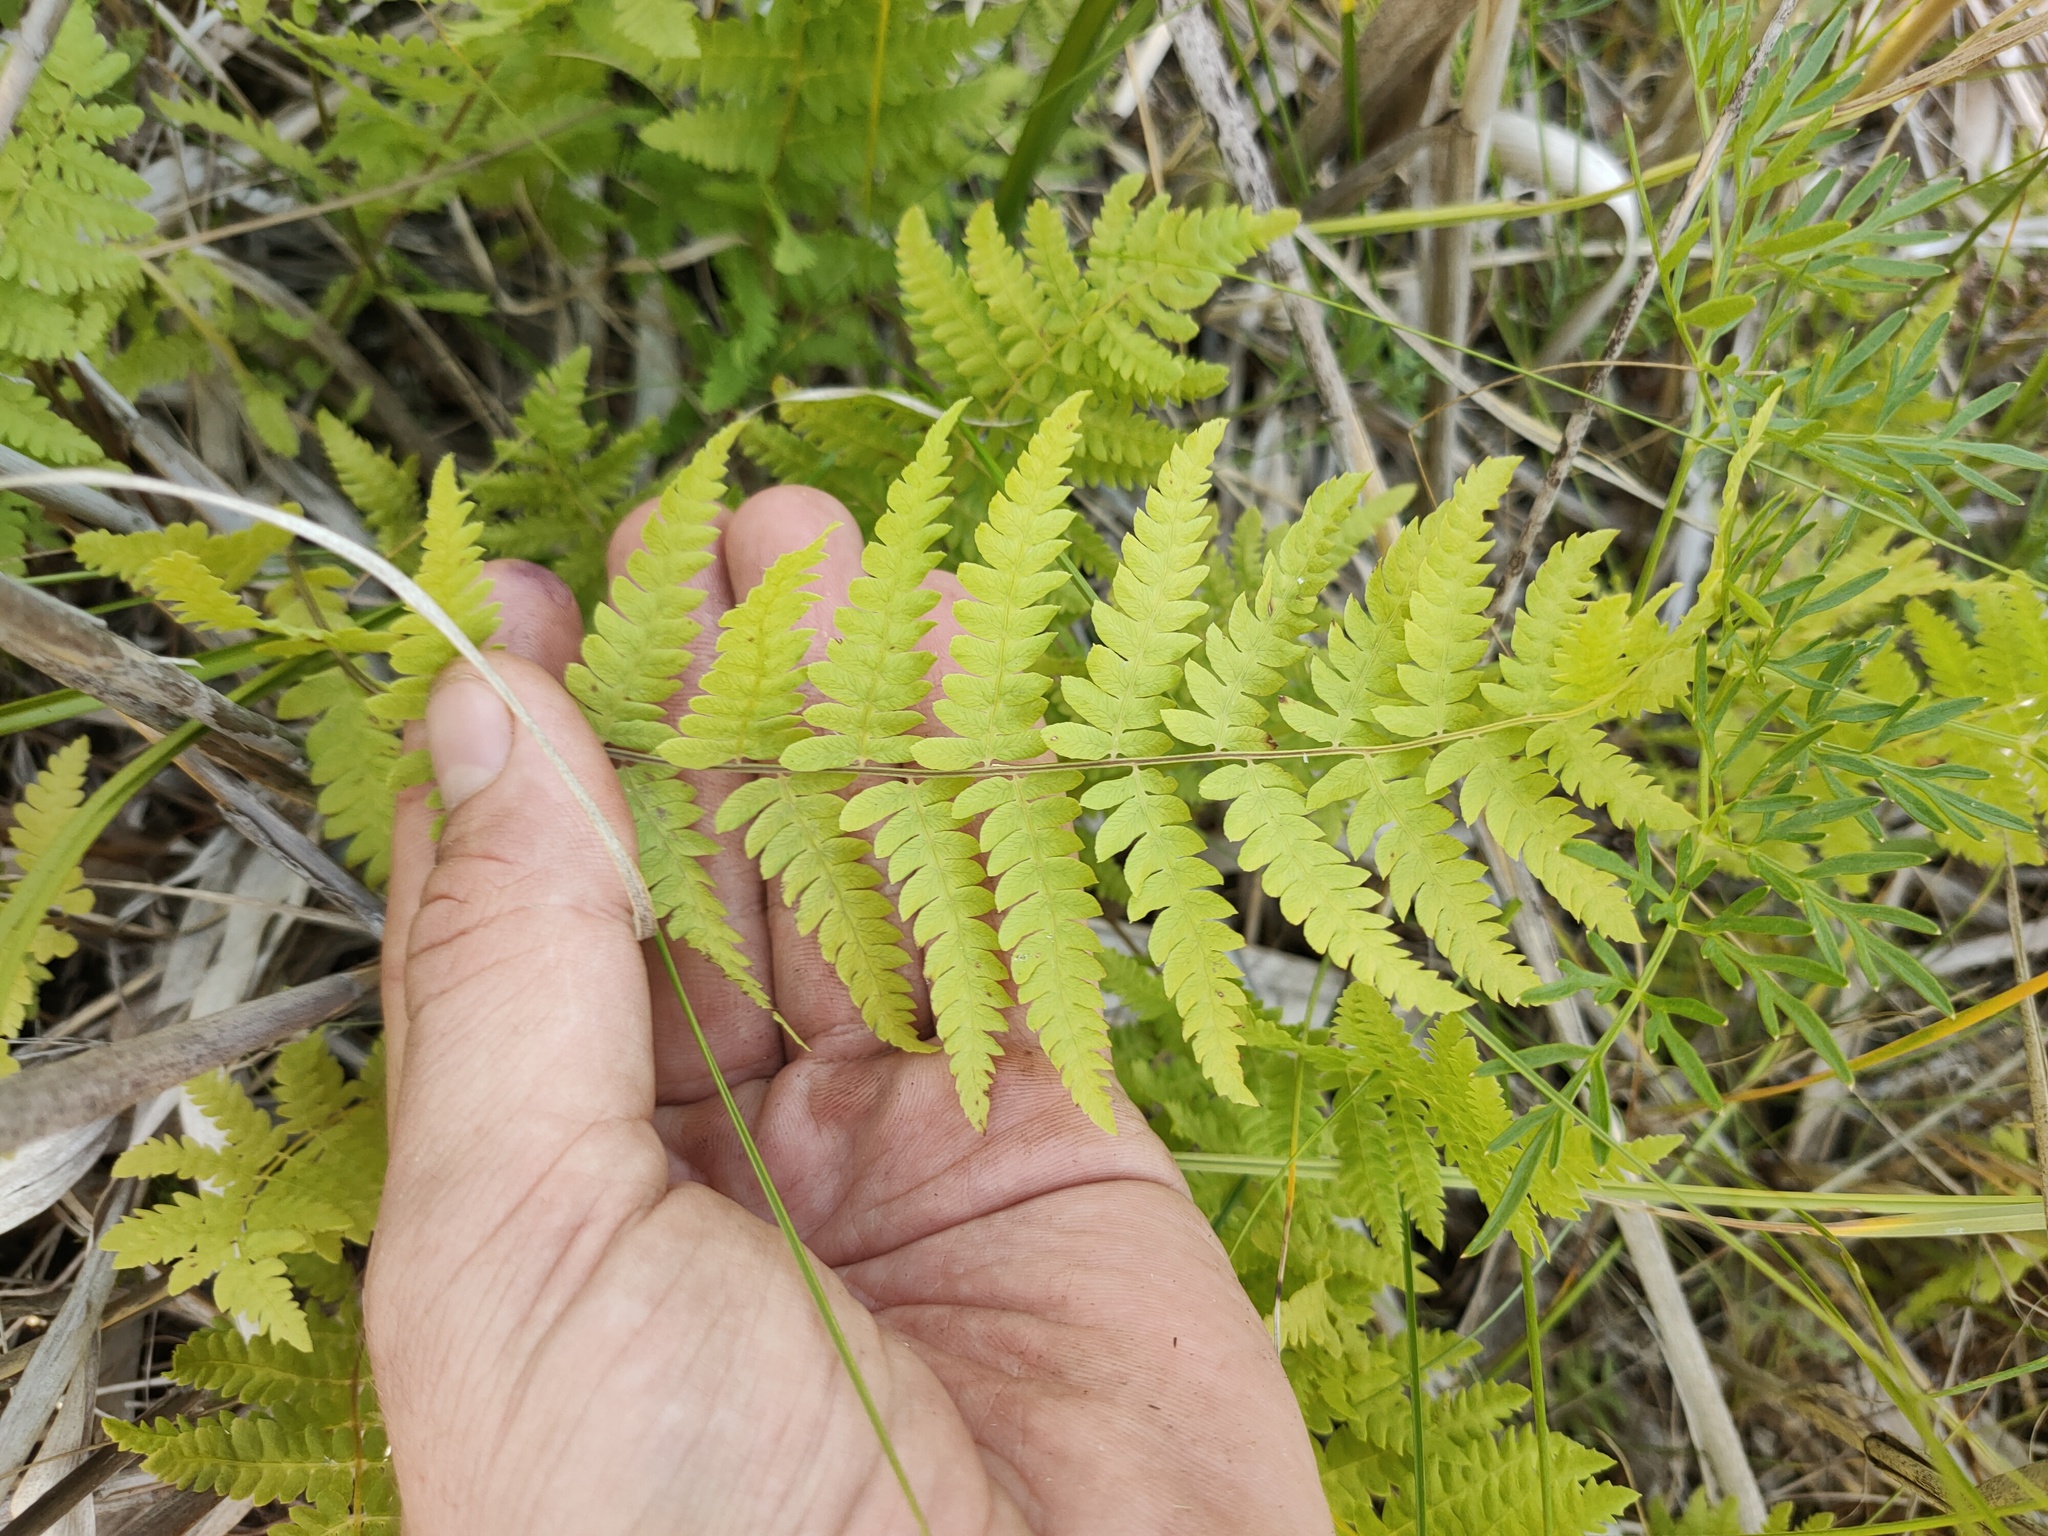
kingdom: Plantae
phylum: Tracheophyta
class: Polypodiopsida
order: Polypodiales
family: Thelypteridaceae
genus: Thelypteris
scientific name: Thelypteris palustris
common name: Marsh fern
